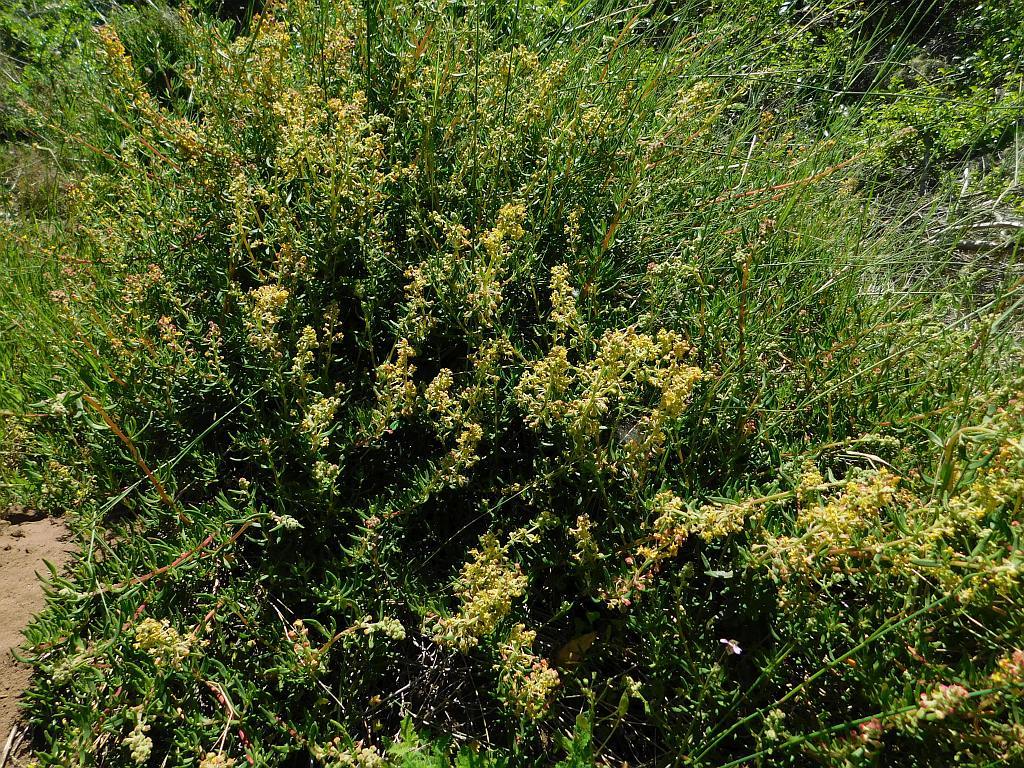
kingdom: Plantae
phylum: Tracheophyta
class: Magnoliopsida
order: Caryophyllales
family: Aizoaceae
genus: Tetragonia
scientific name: Tetragonia fruticosa
